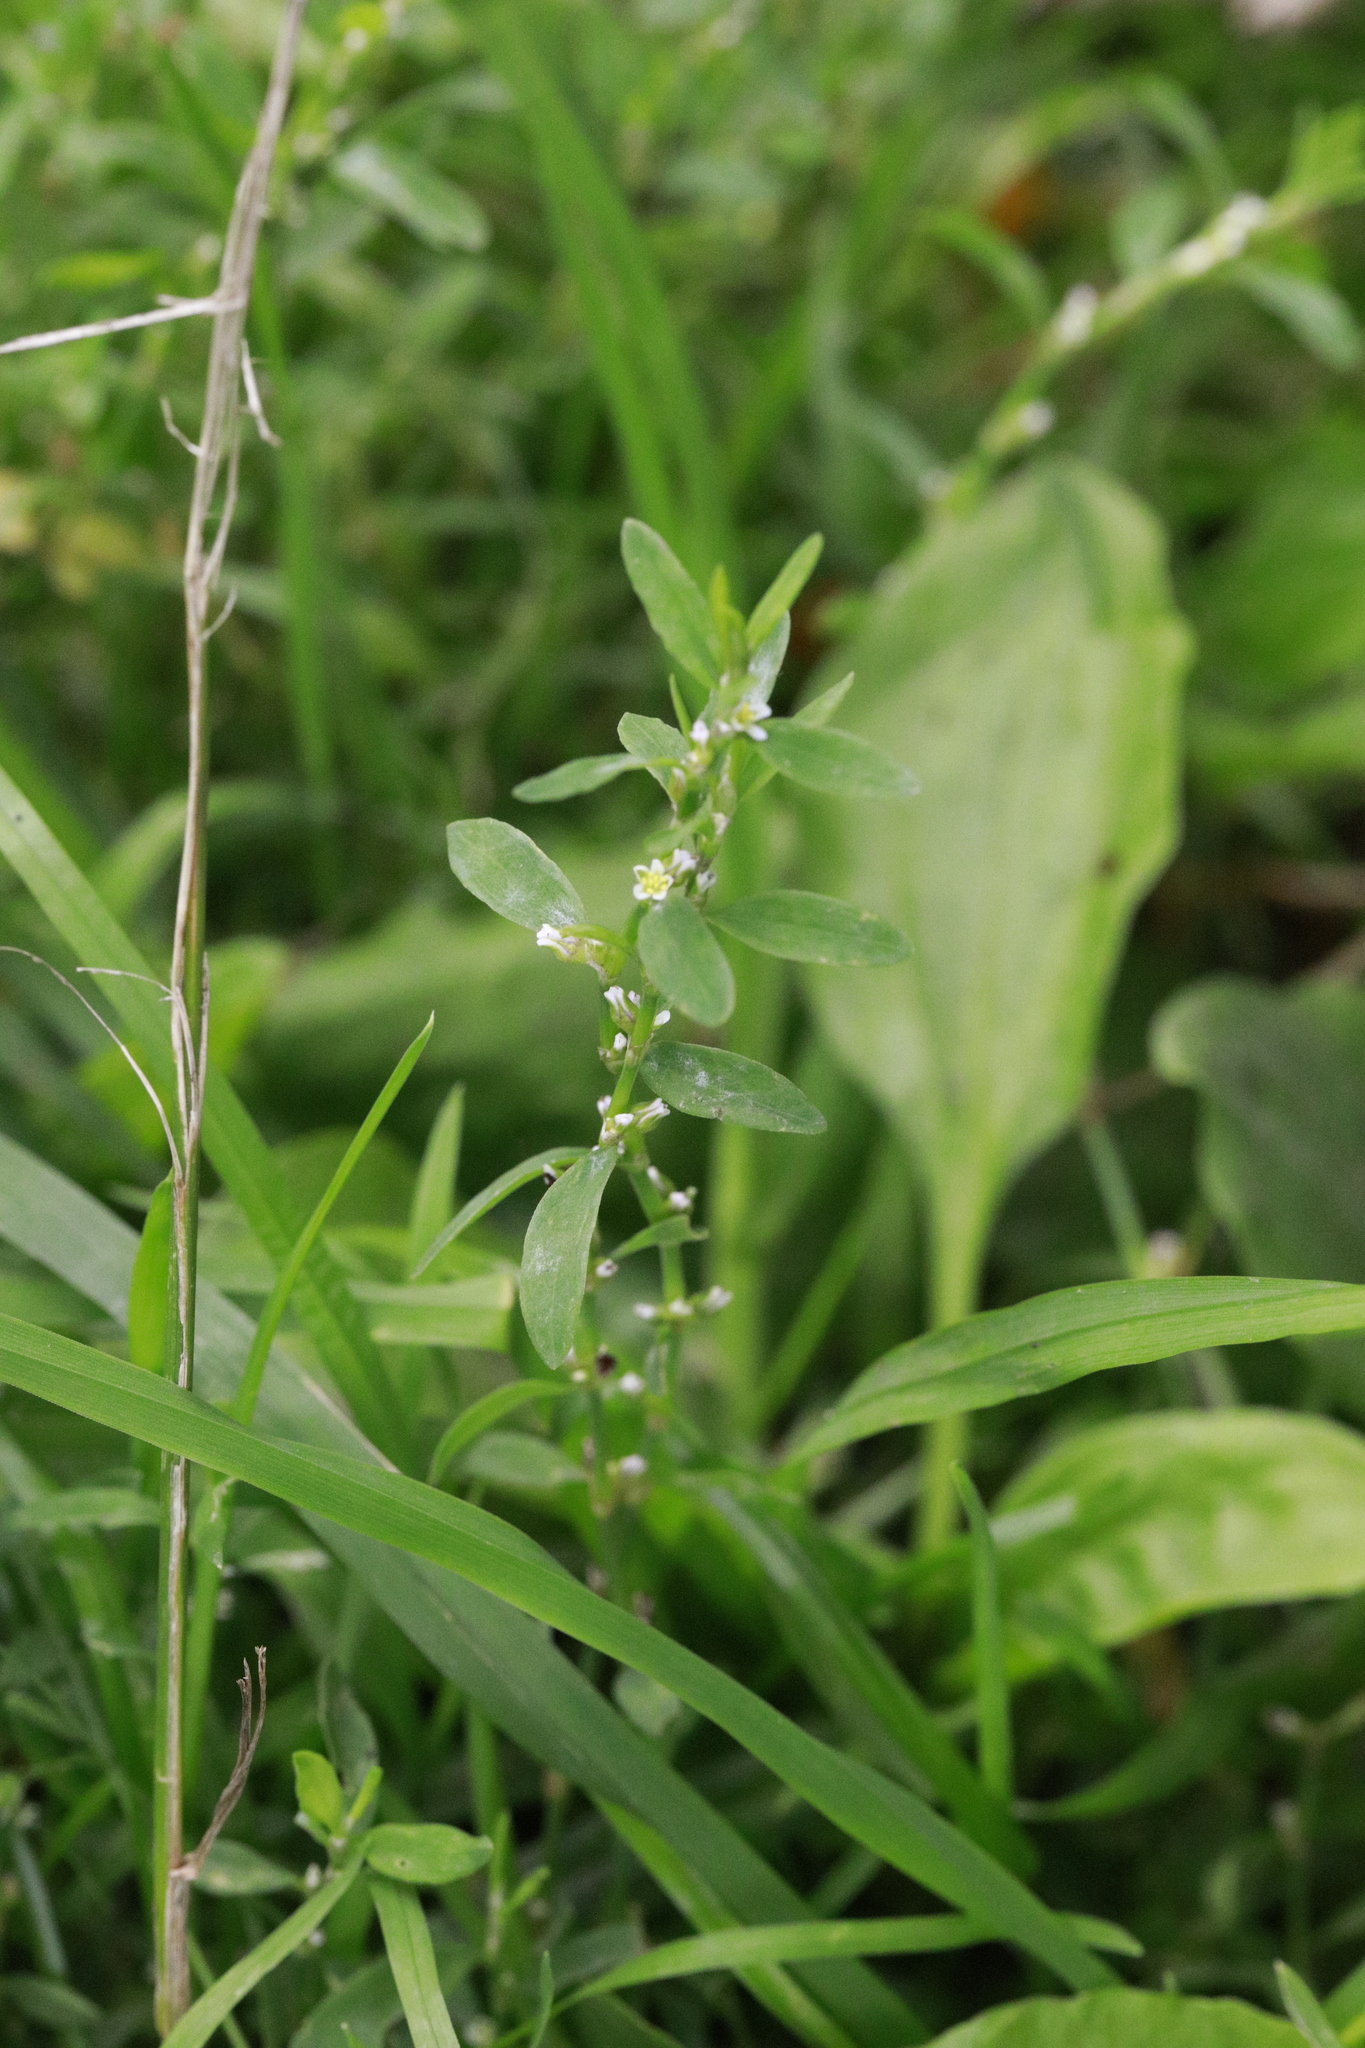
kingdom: Plantae
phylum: Tracheophyta
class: Magnoliopsida
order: Caryophyllales
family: Polygonaceae
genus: Polygonum
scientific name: Polygonum aviculare
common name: Prostrate knotweed
